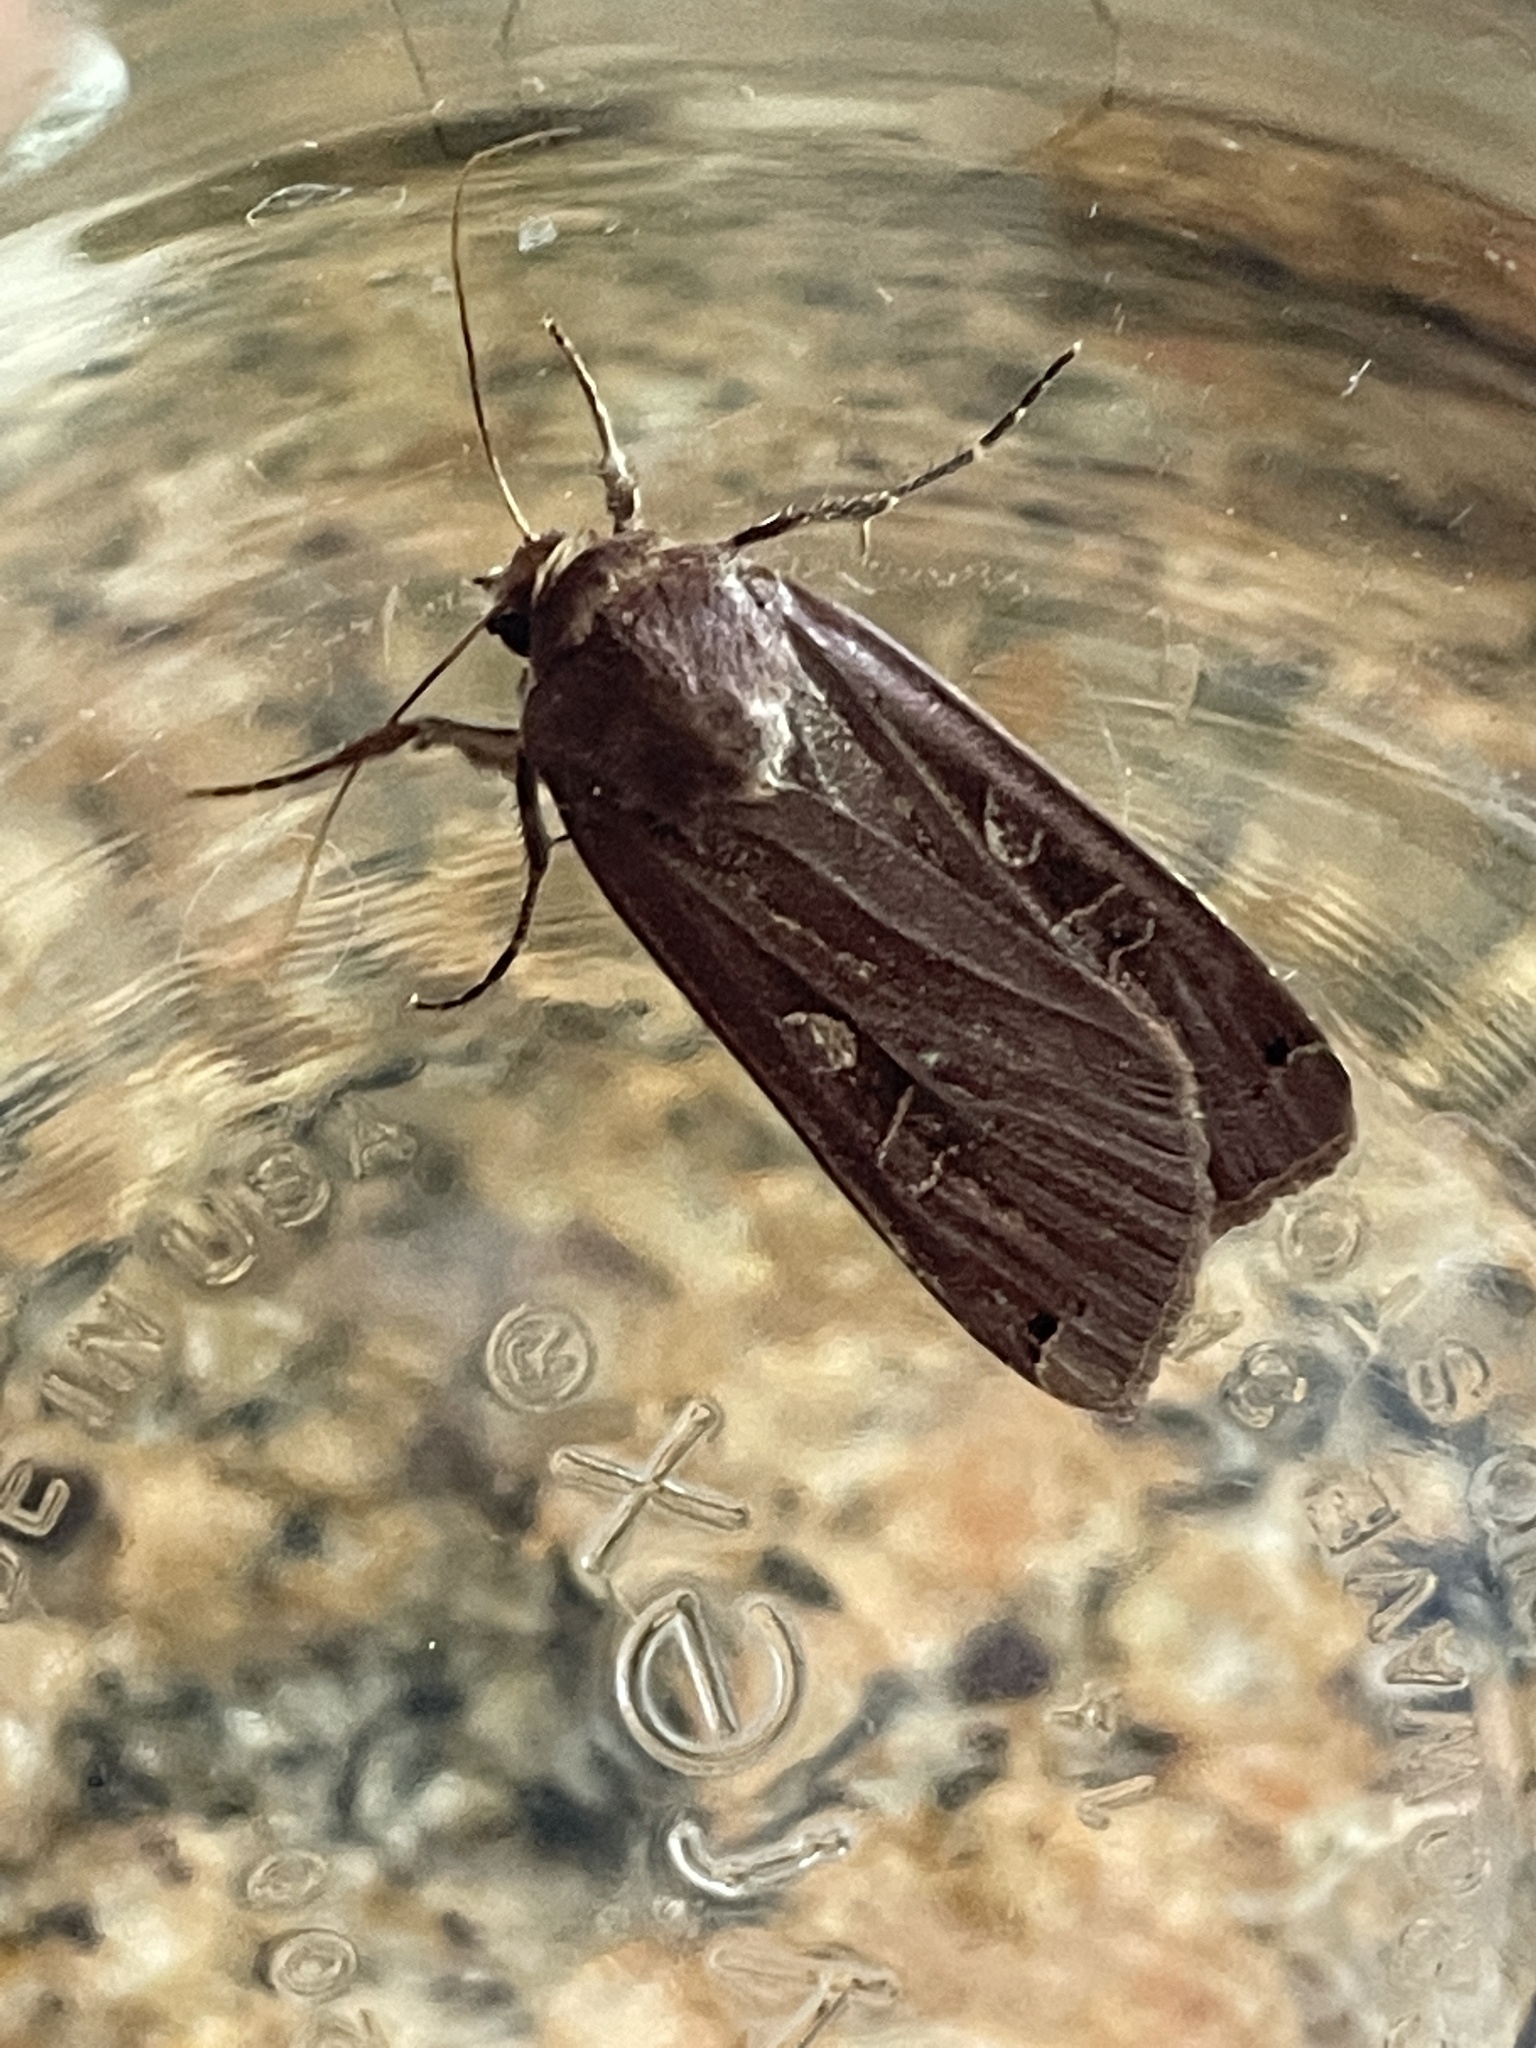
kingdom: Animalia
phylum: Arthropoda
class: Insecta
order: Lepidoptera
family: Noctuidae
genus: Noctua
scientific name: Noctua pronuba
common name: Large yellow underwing
